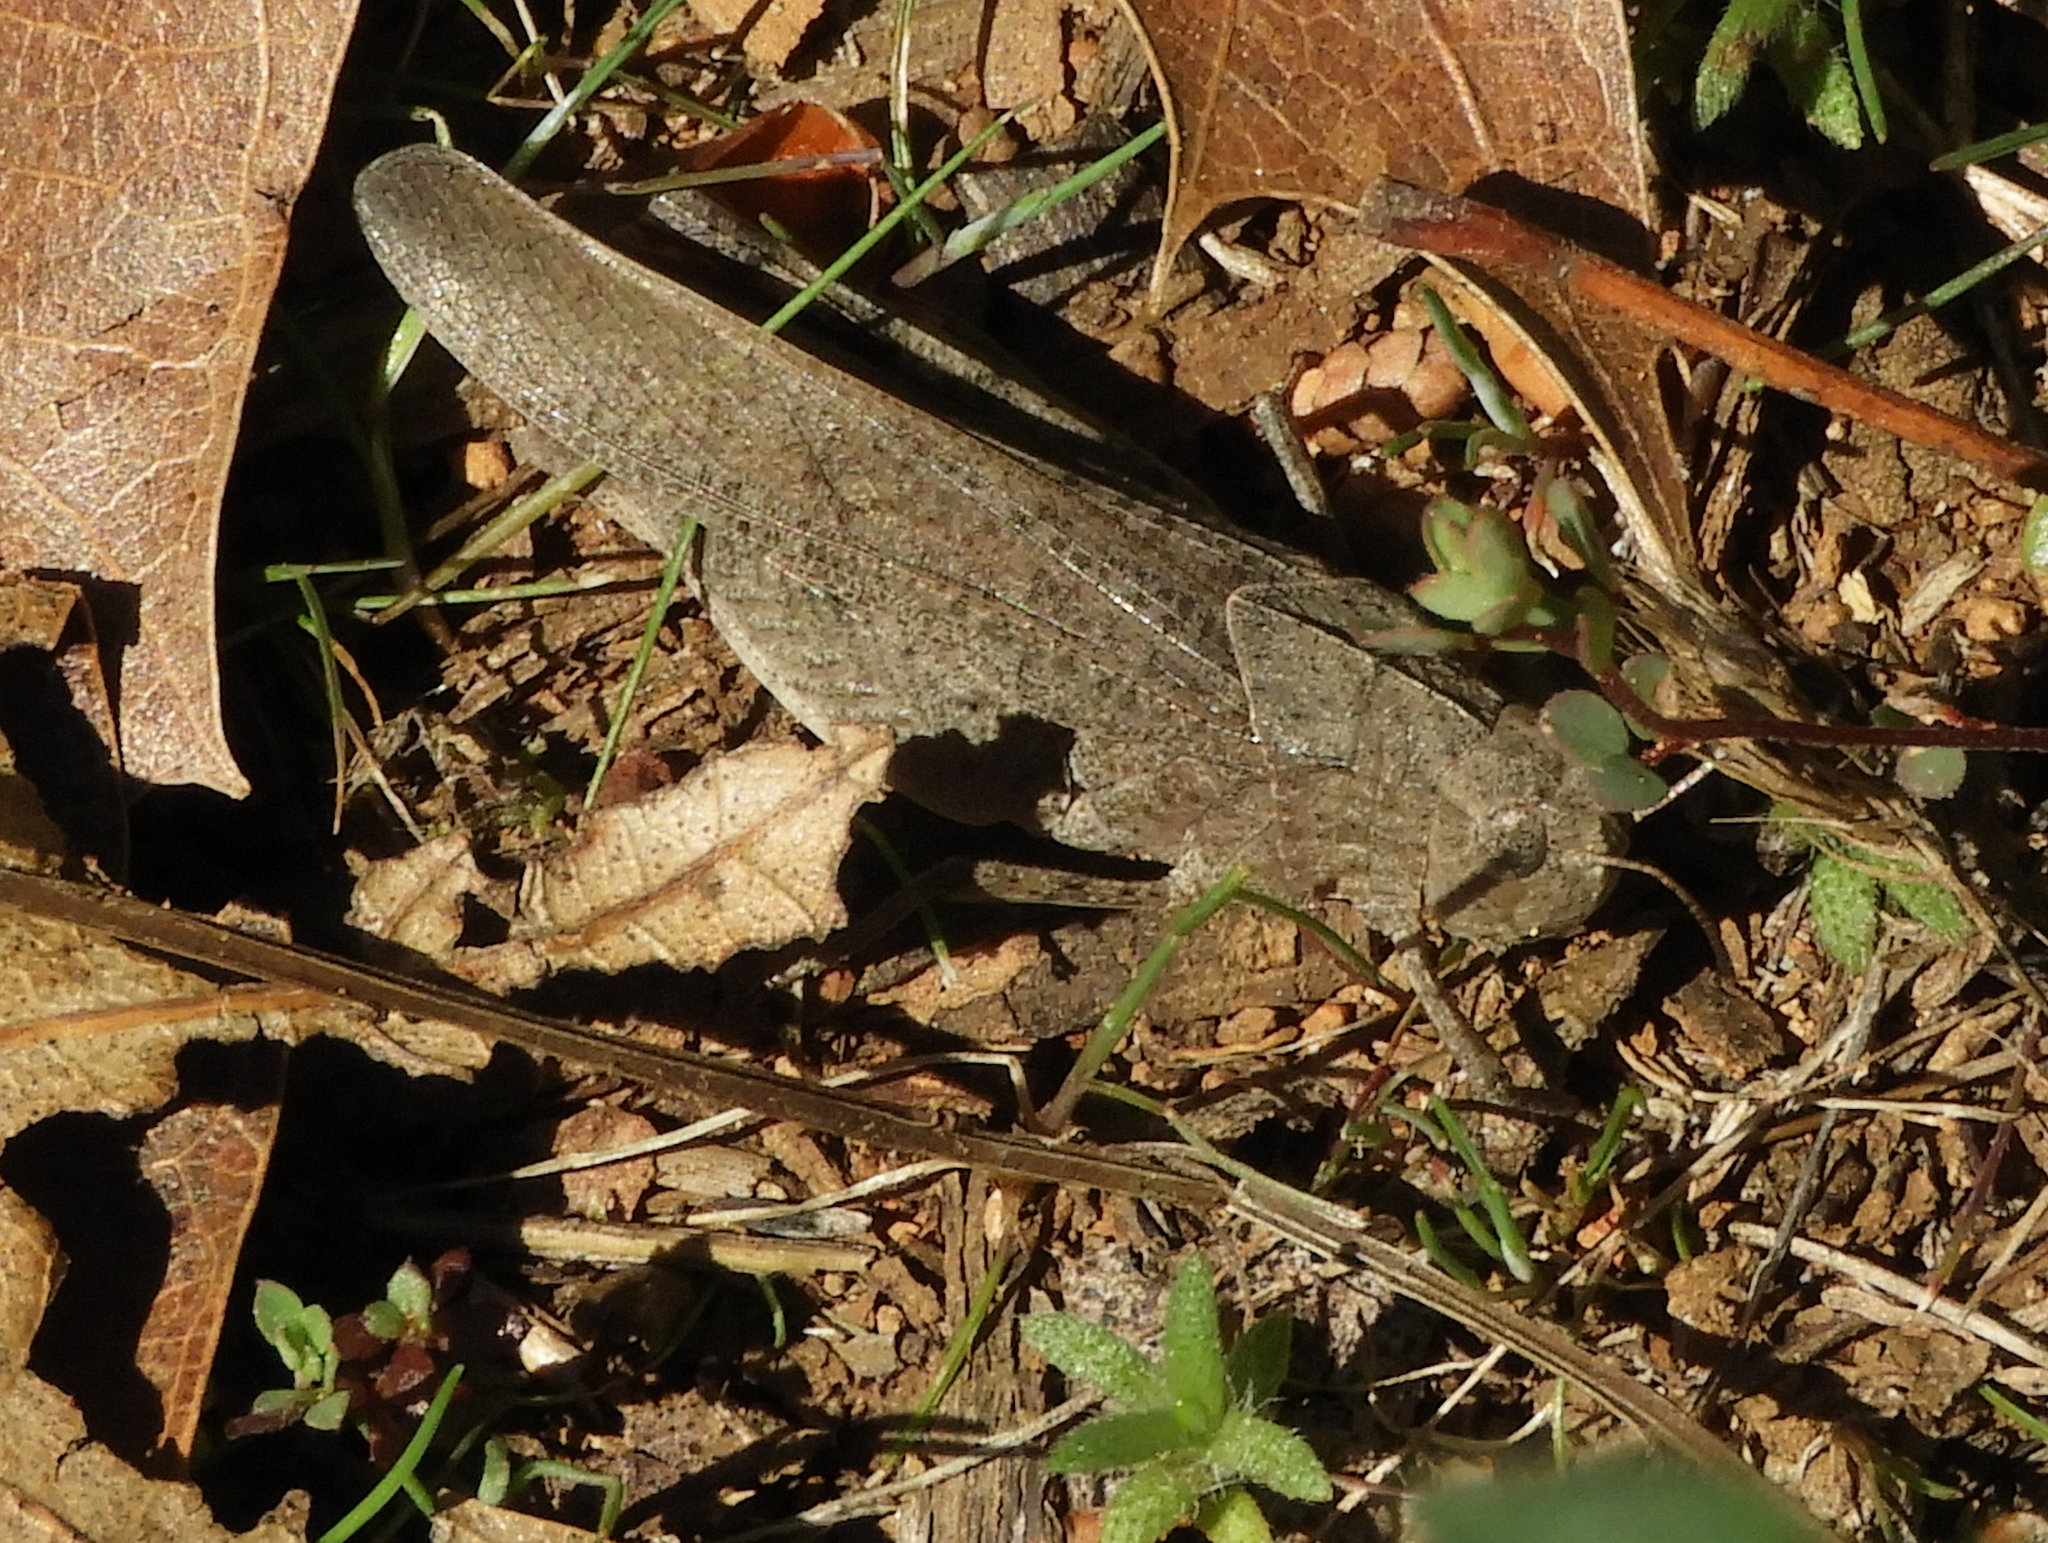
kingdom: Animalia
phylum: Arthropoda
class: Insecta
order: Orthoptera
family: Acrididae
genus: Arphia
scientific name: Arphia behrensi
